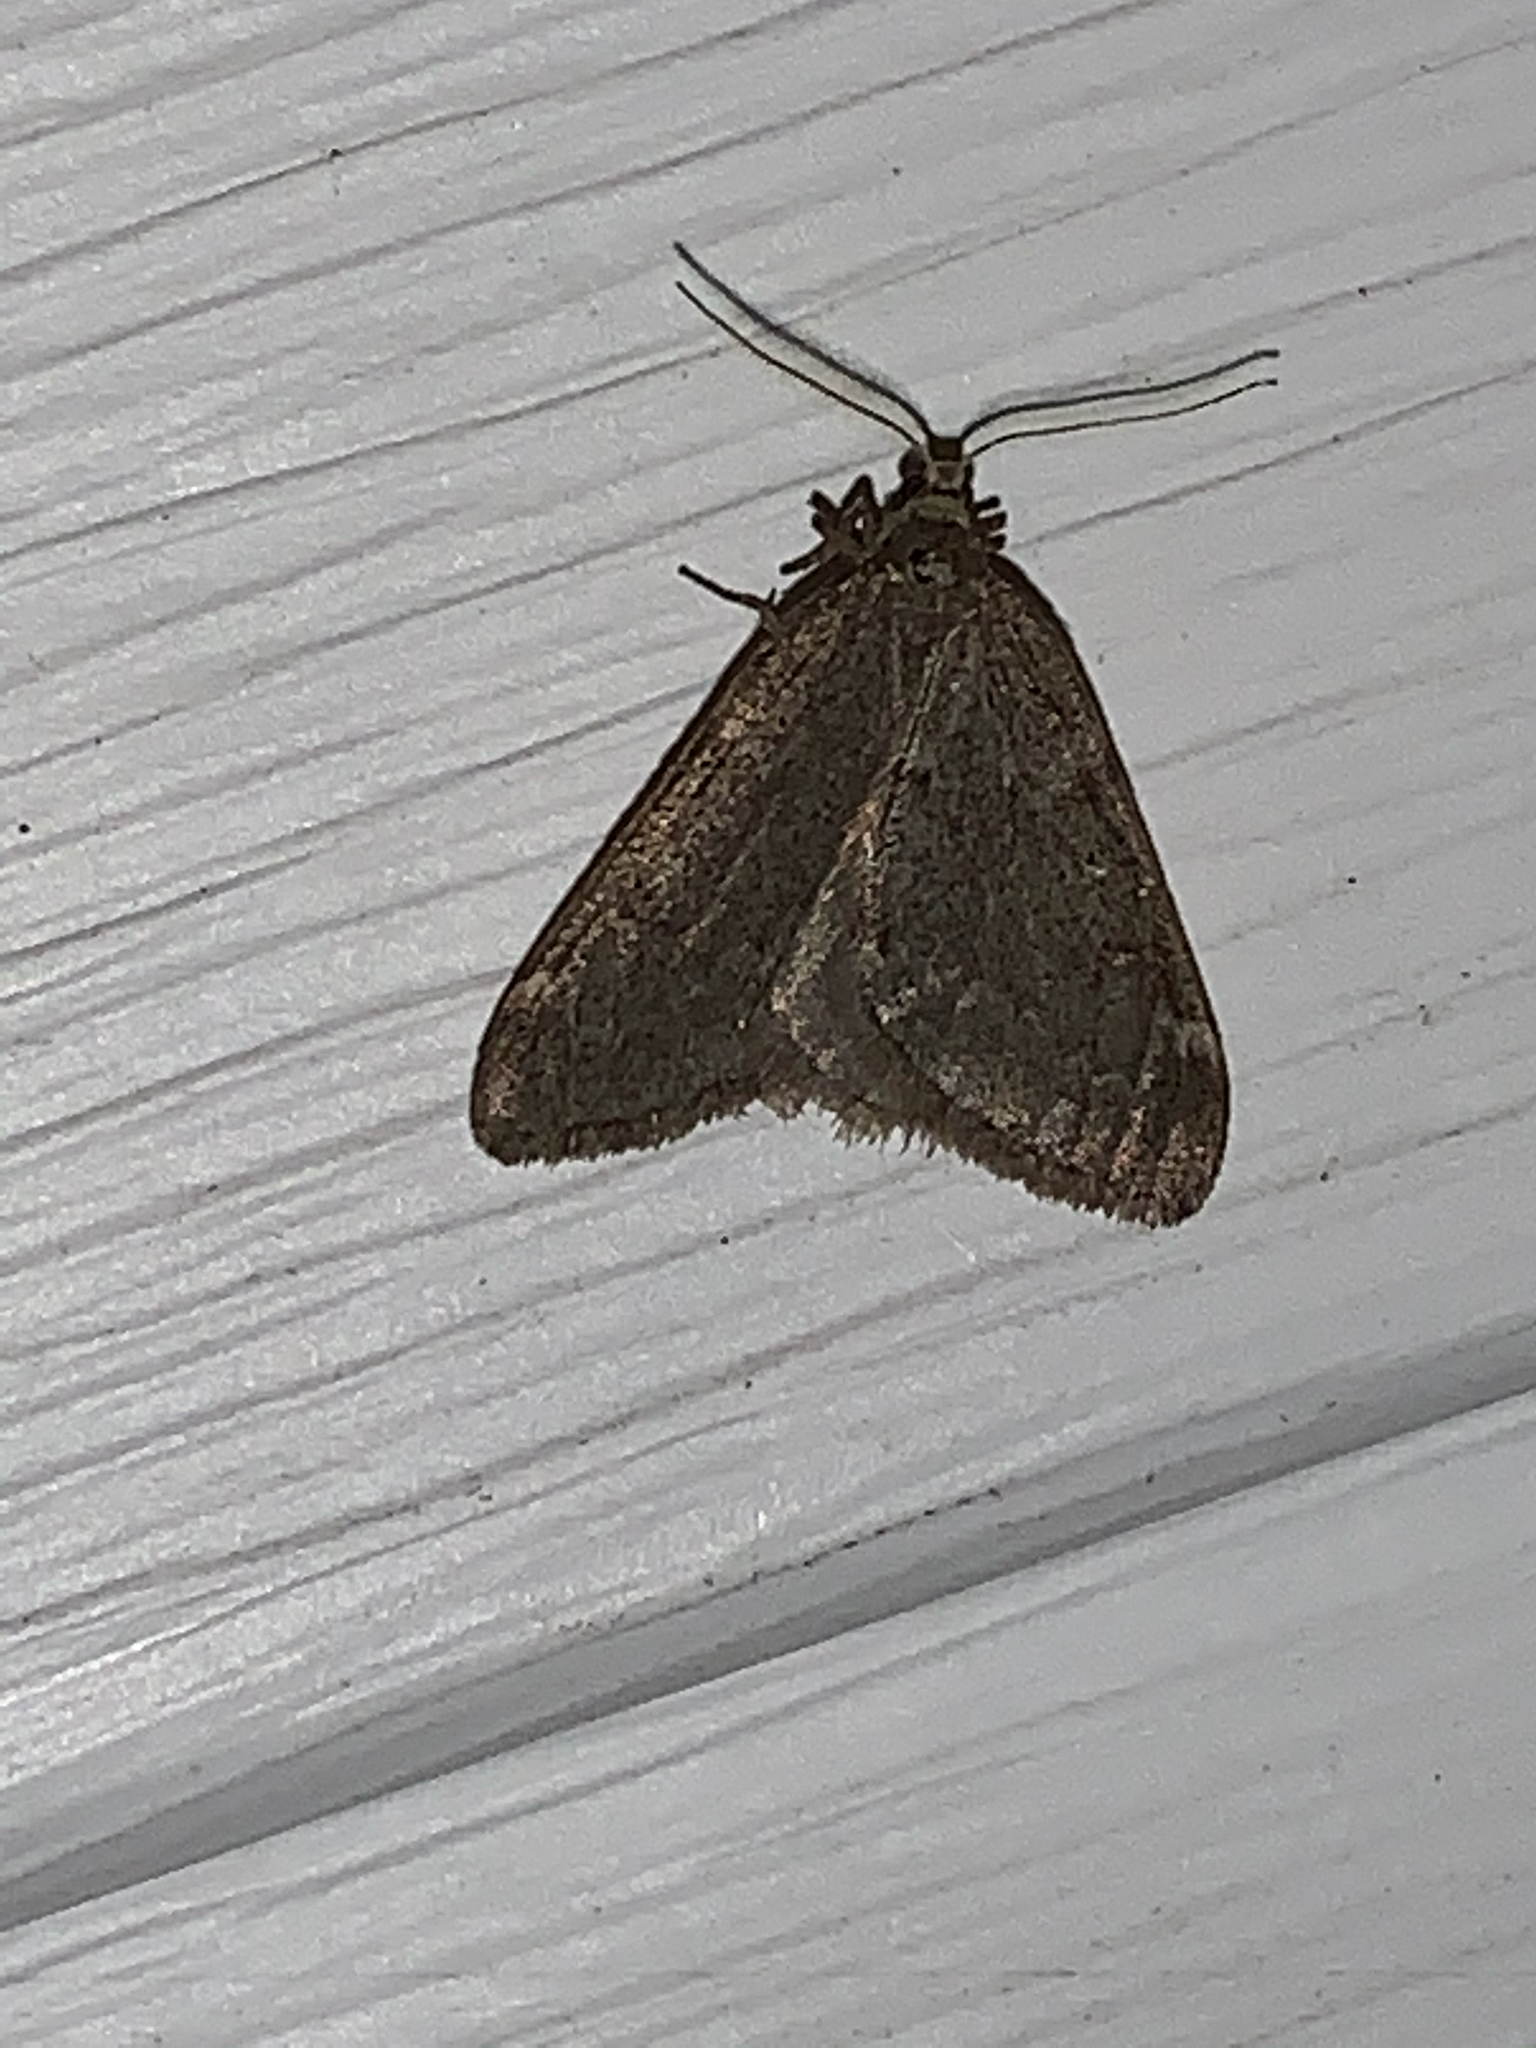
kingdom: Animalia
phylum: Arthropoda
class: Insecta
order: Lepidoptera
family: Geometridae
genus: Alsophila
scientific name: Alsophila pometaria
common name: Fall cankerworm
